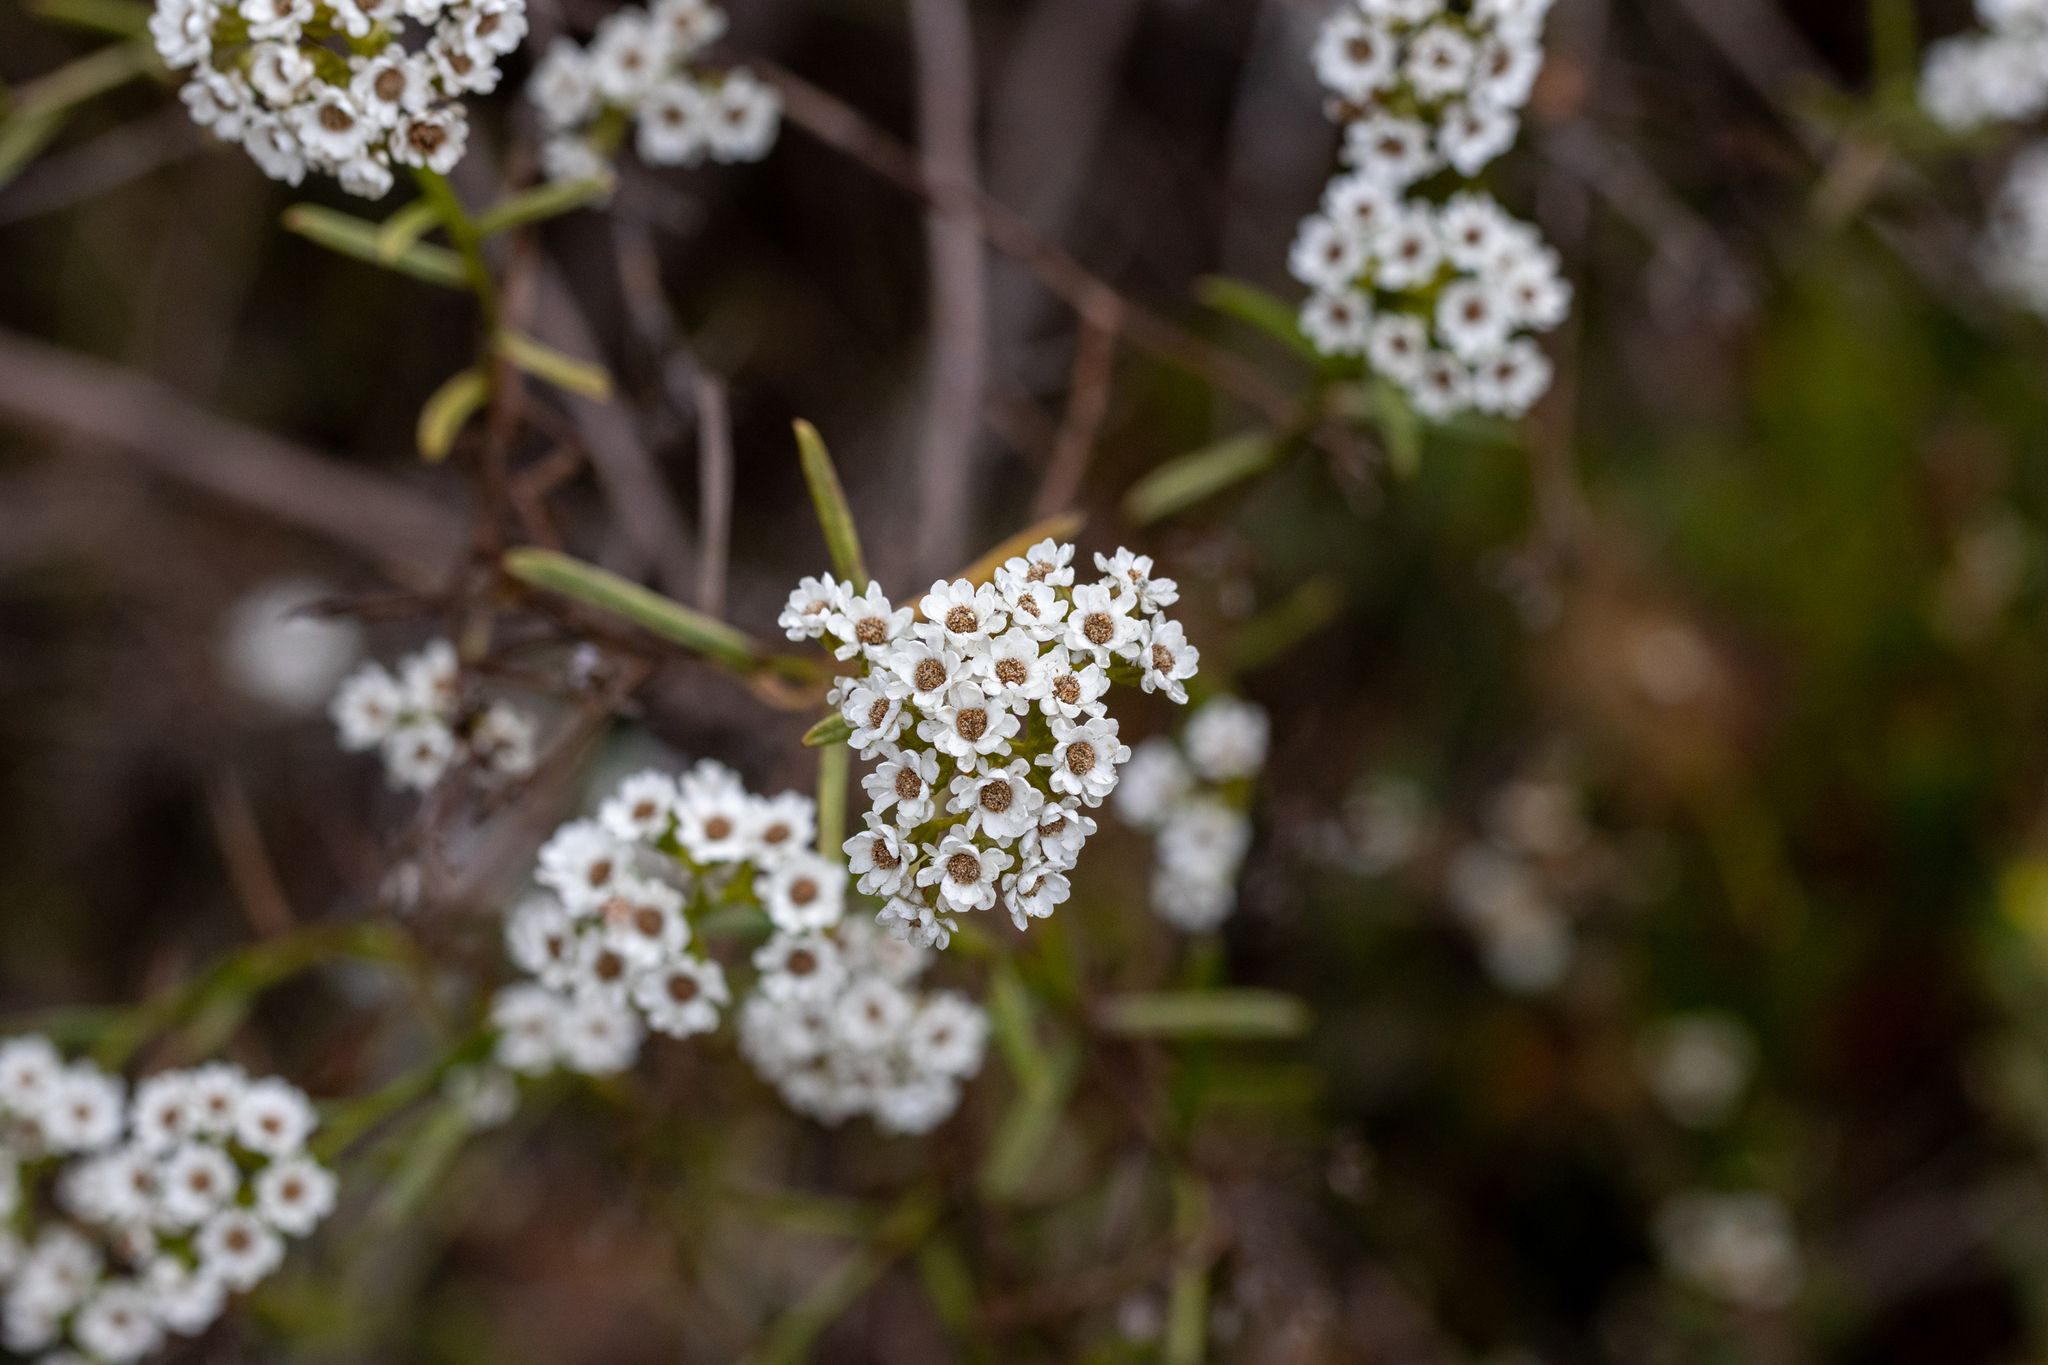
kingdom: Plantae
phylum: Tracheophyta
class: Magnoliopsida
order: Asterales
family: Asteraceae
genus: Ixodia
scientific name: Ixodia achillaeoides
